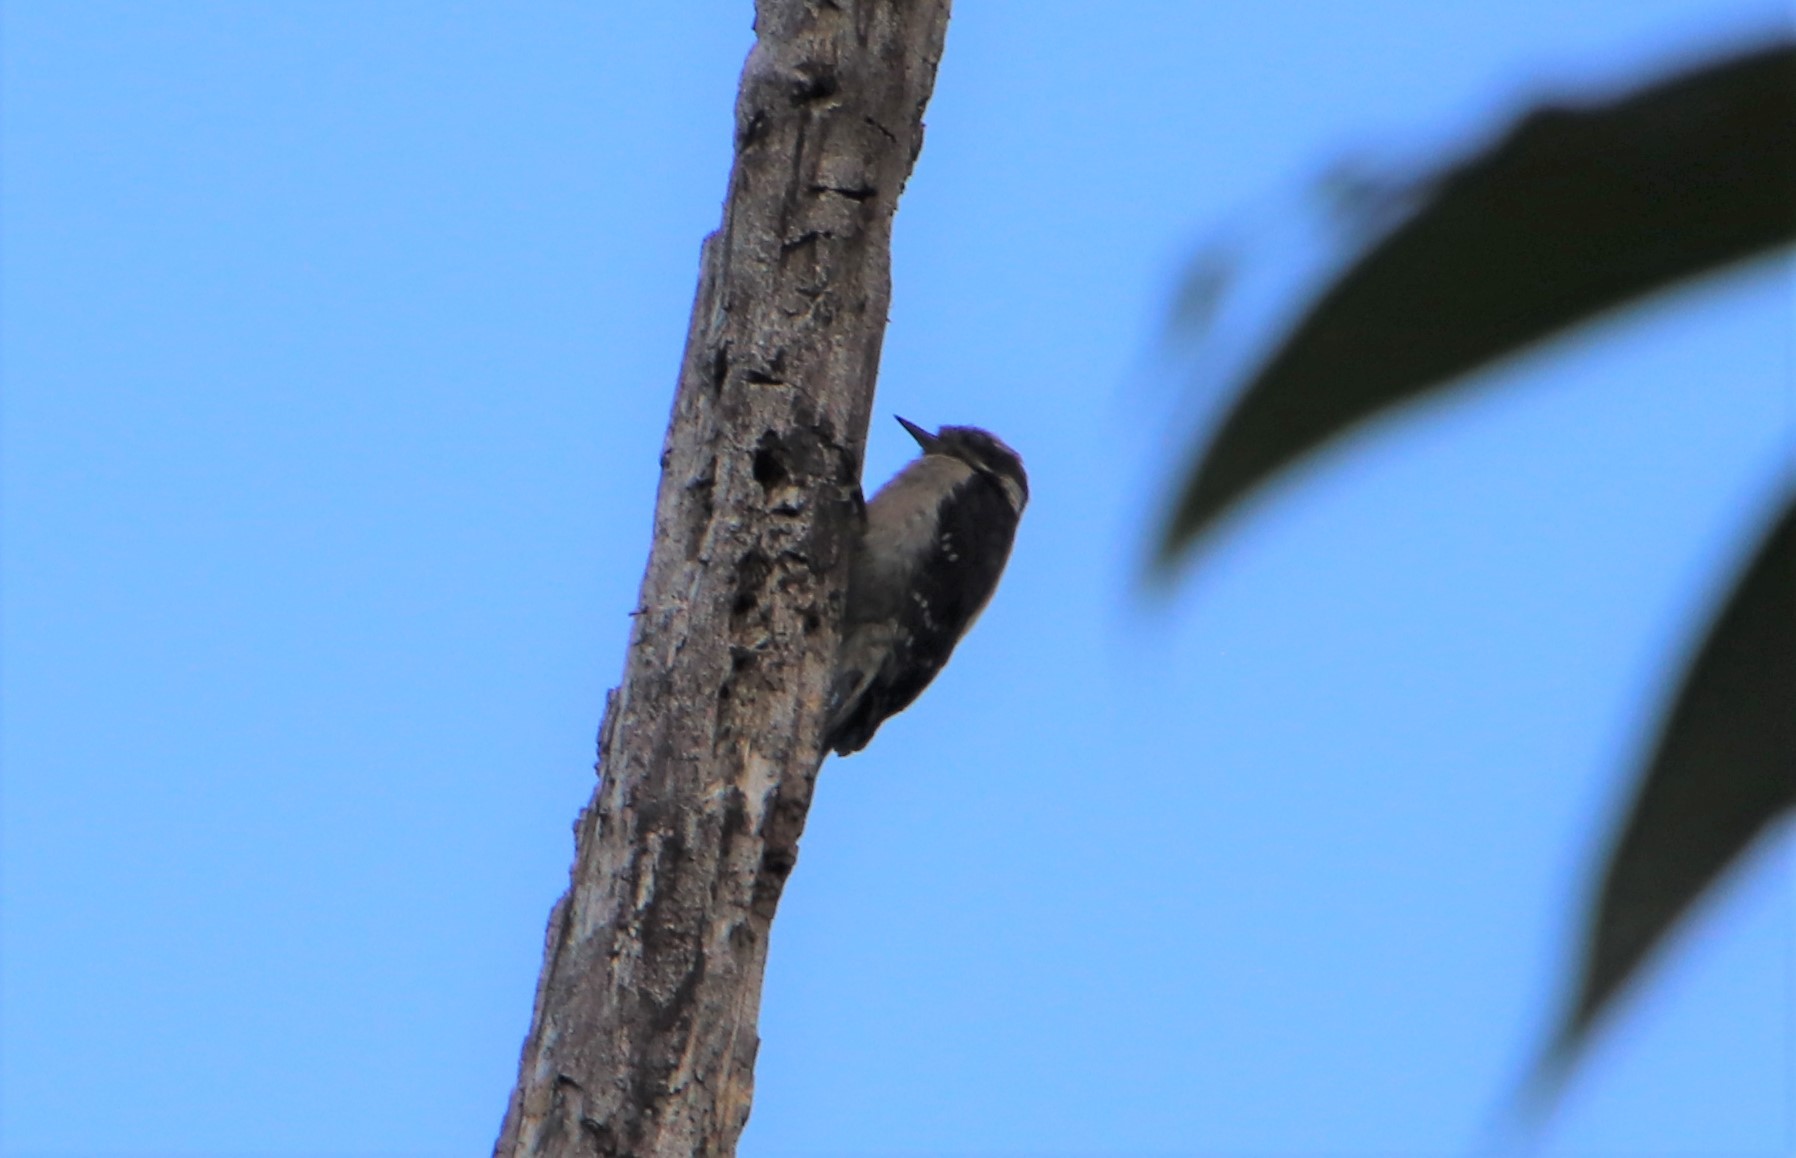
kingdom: Animalia
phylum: Chordata
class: Aves
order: Piciformes
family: Picidae
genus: Dryobates
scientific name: Dryobates pubescens
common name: Downy woodpecker
